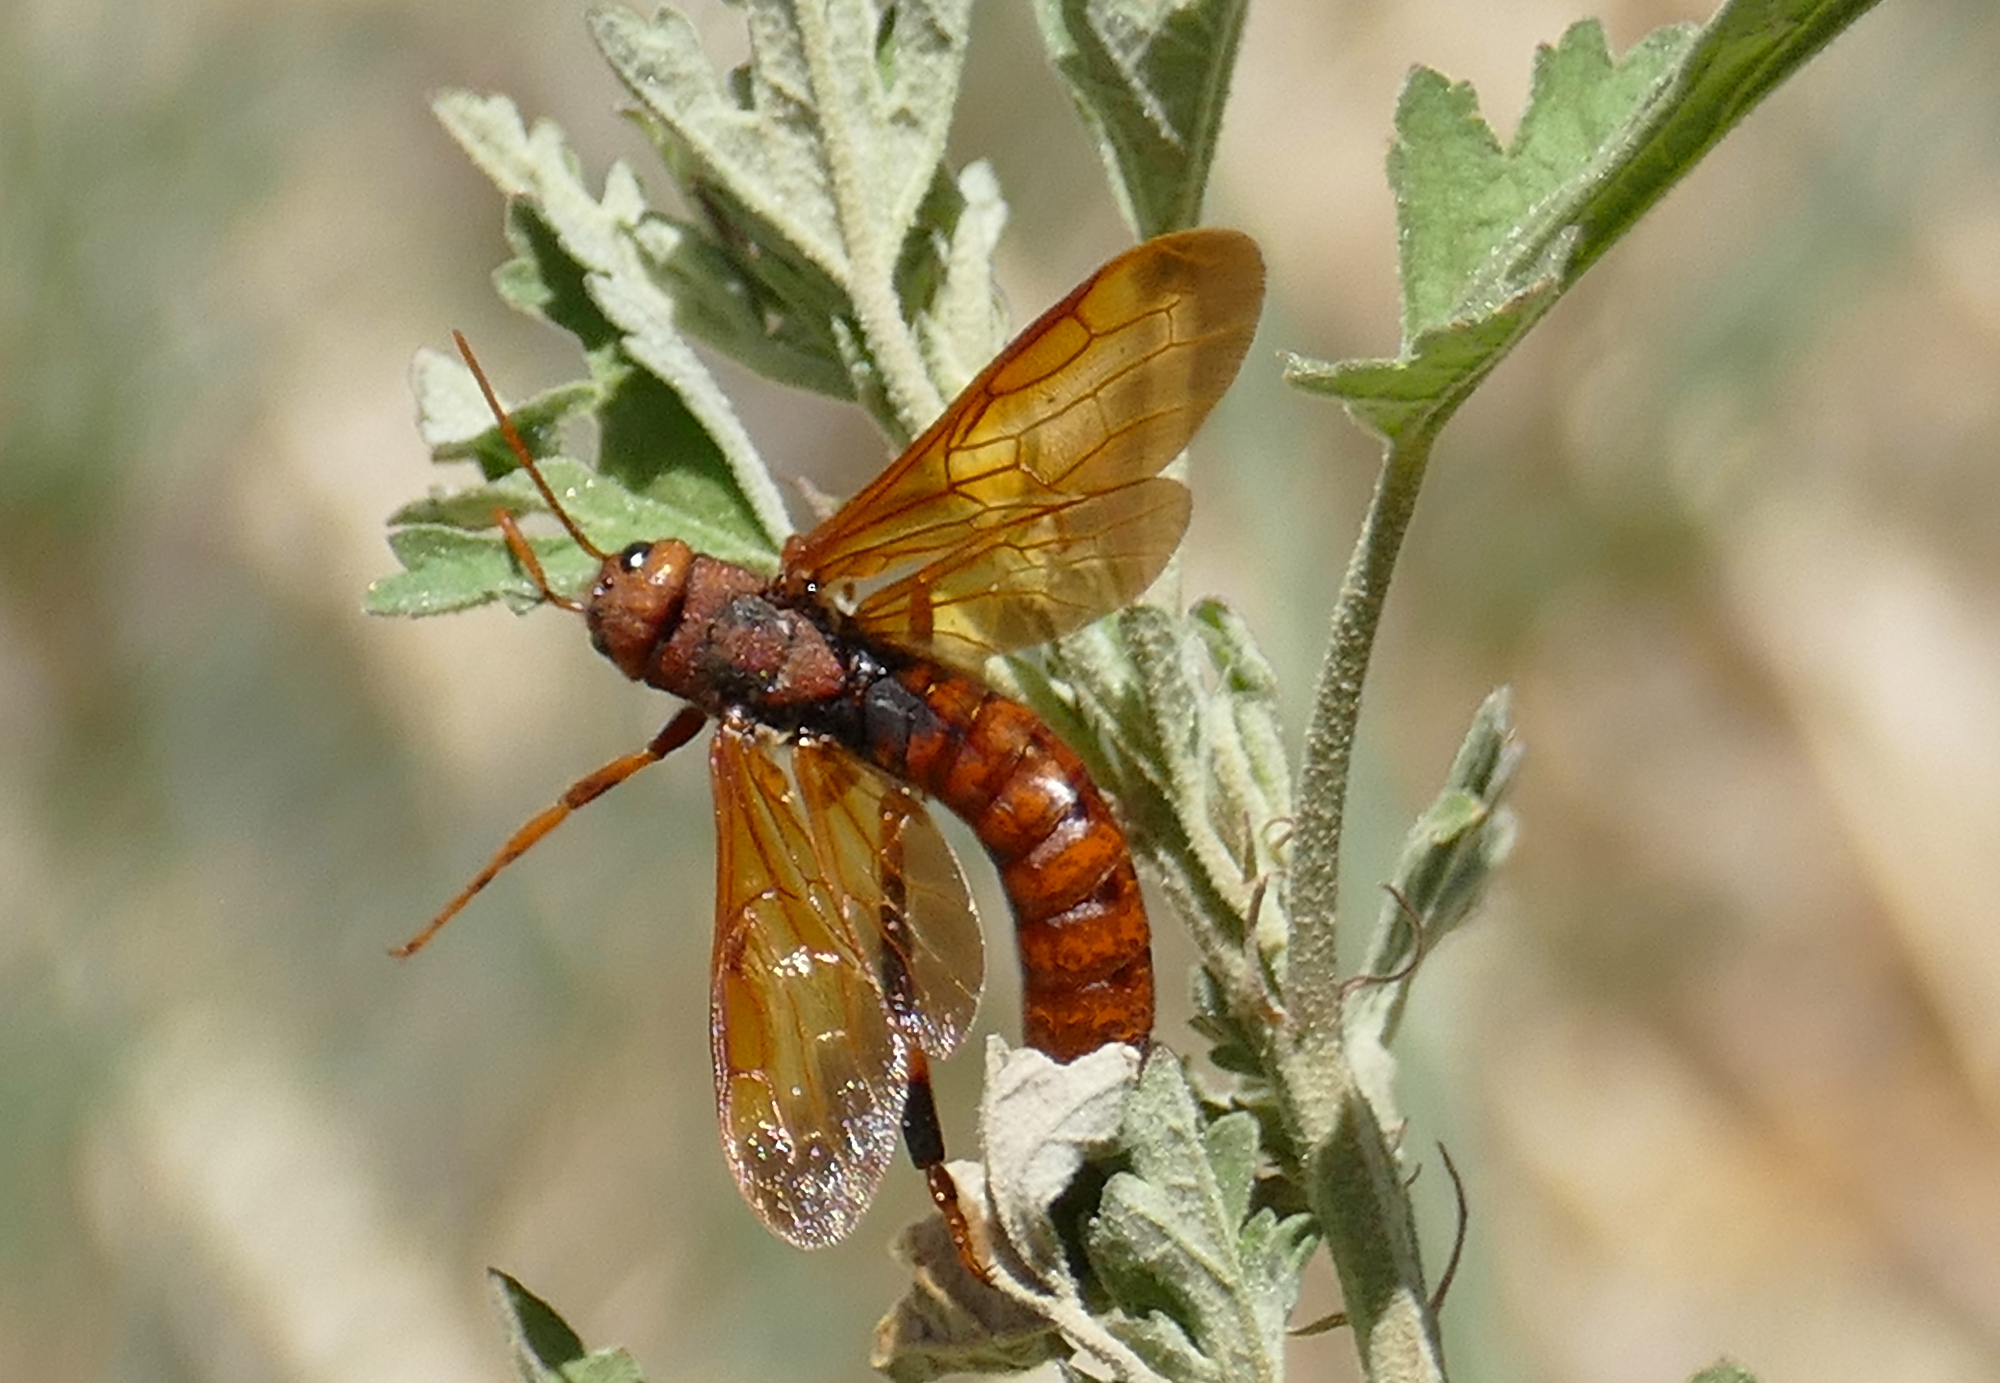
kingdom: Animalia
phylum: Arthropoda
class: Insecta
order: Hymenoptera
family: Siricidae
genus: Tremex
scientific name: Tremex columba
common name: Wasp
